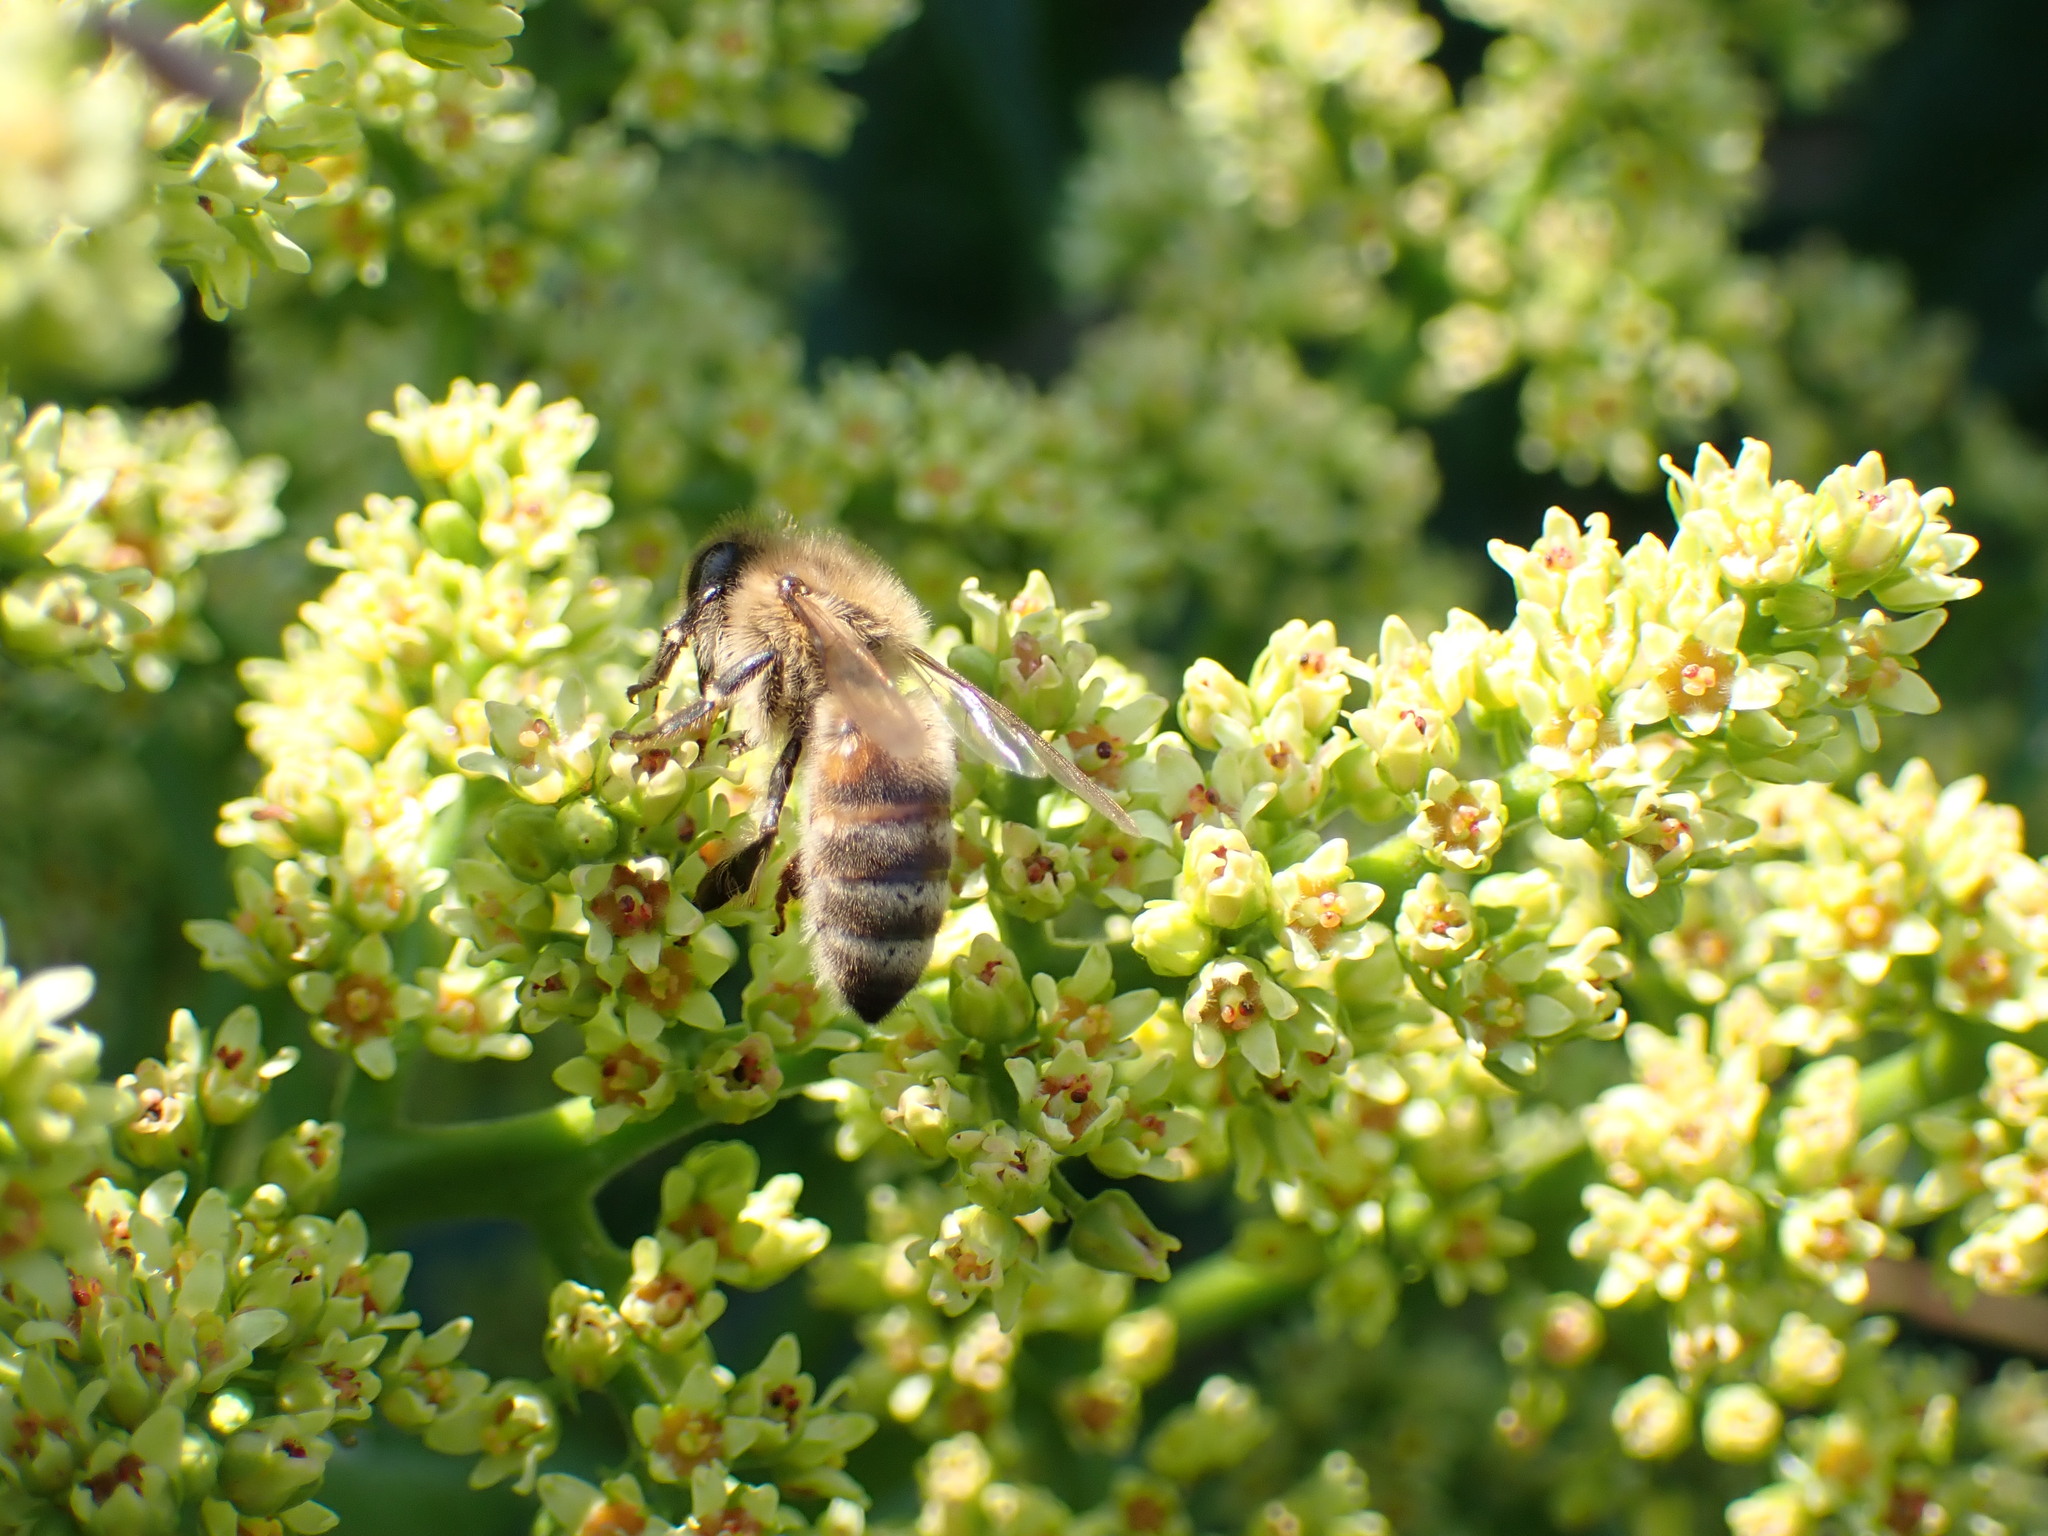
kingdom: Animalia
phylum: Arthropoda
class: Insecta
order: Hymenoptera
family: Apidae
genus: Apis
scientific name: Apis mellifera
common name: Honey bee
